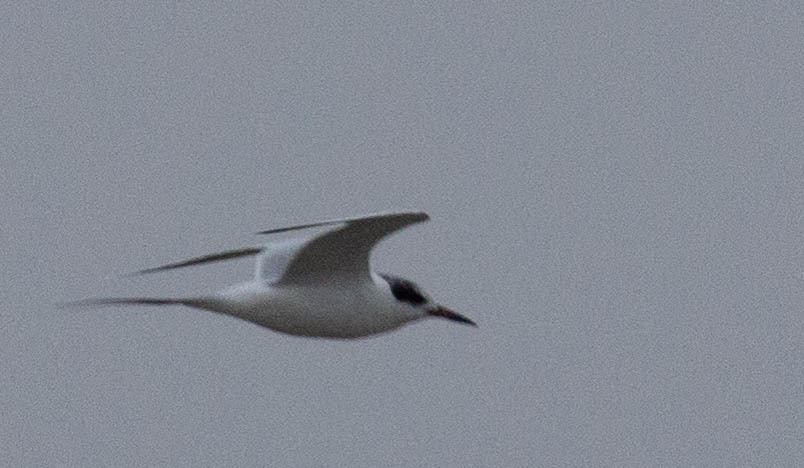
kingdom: Animalia
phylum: Chordata
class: Aves
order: Charadriiformes
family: Laridae
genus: Sterna
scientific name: Sterna forsteri
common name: Forster's tern
